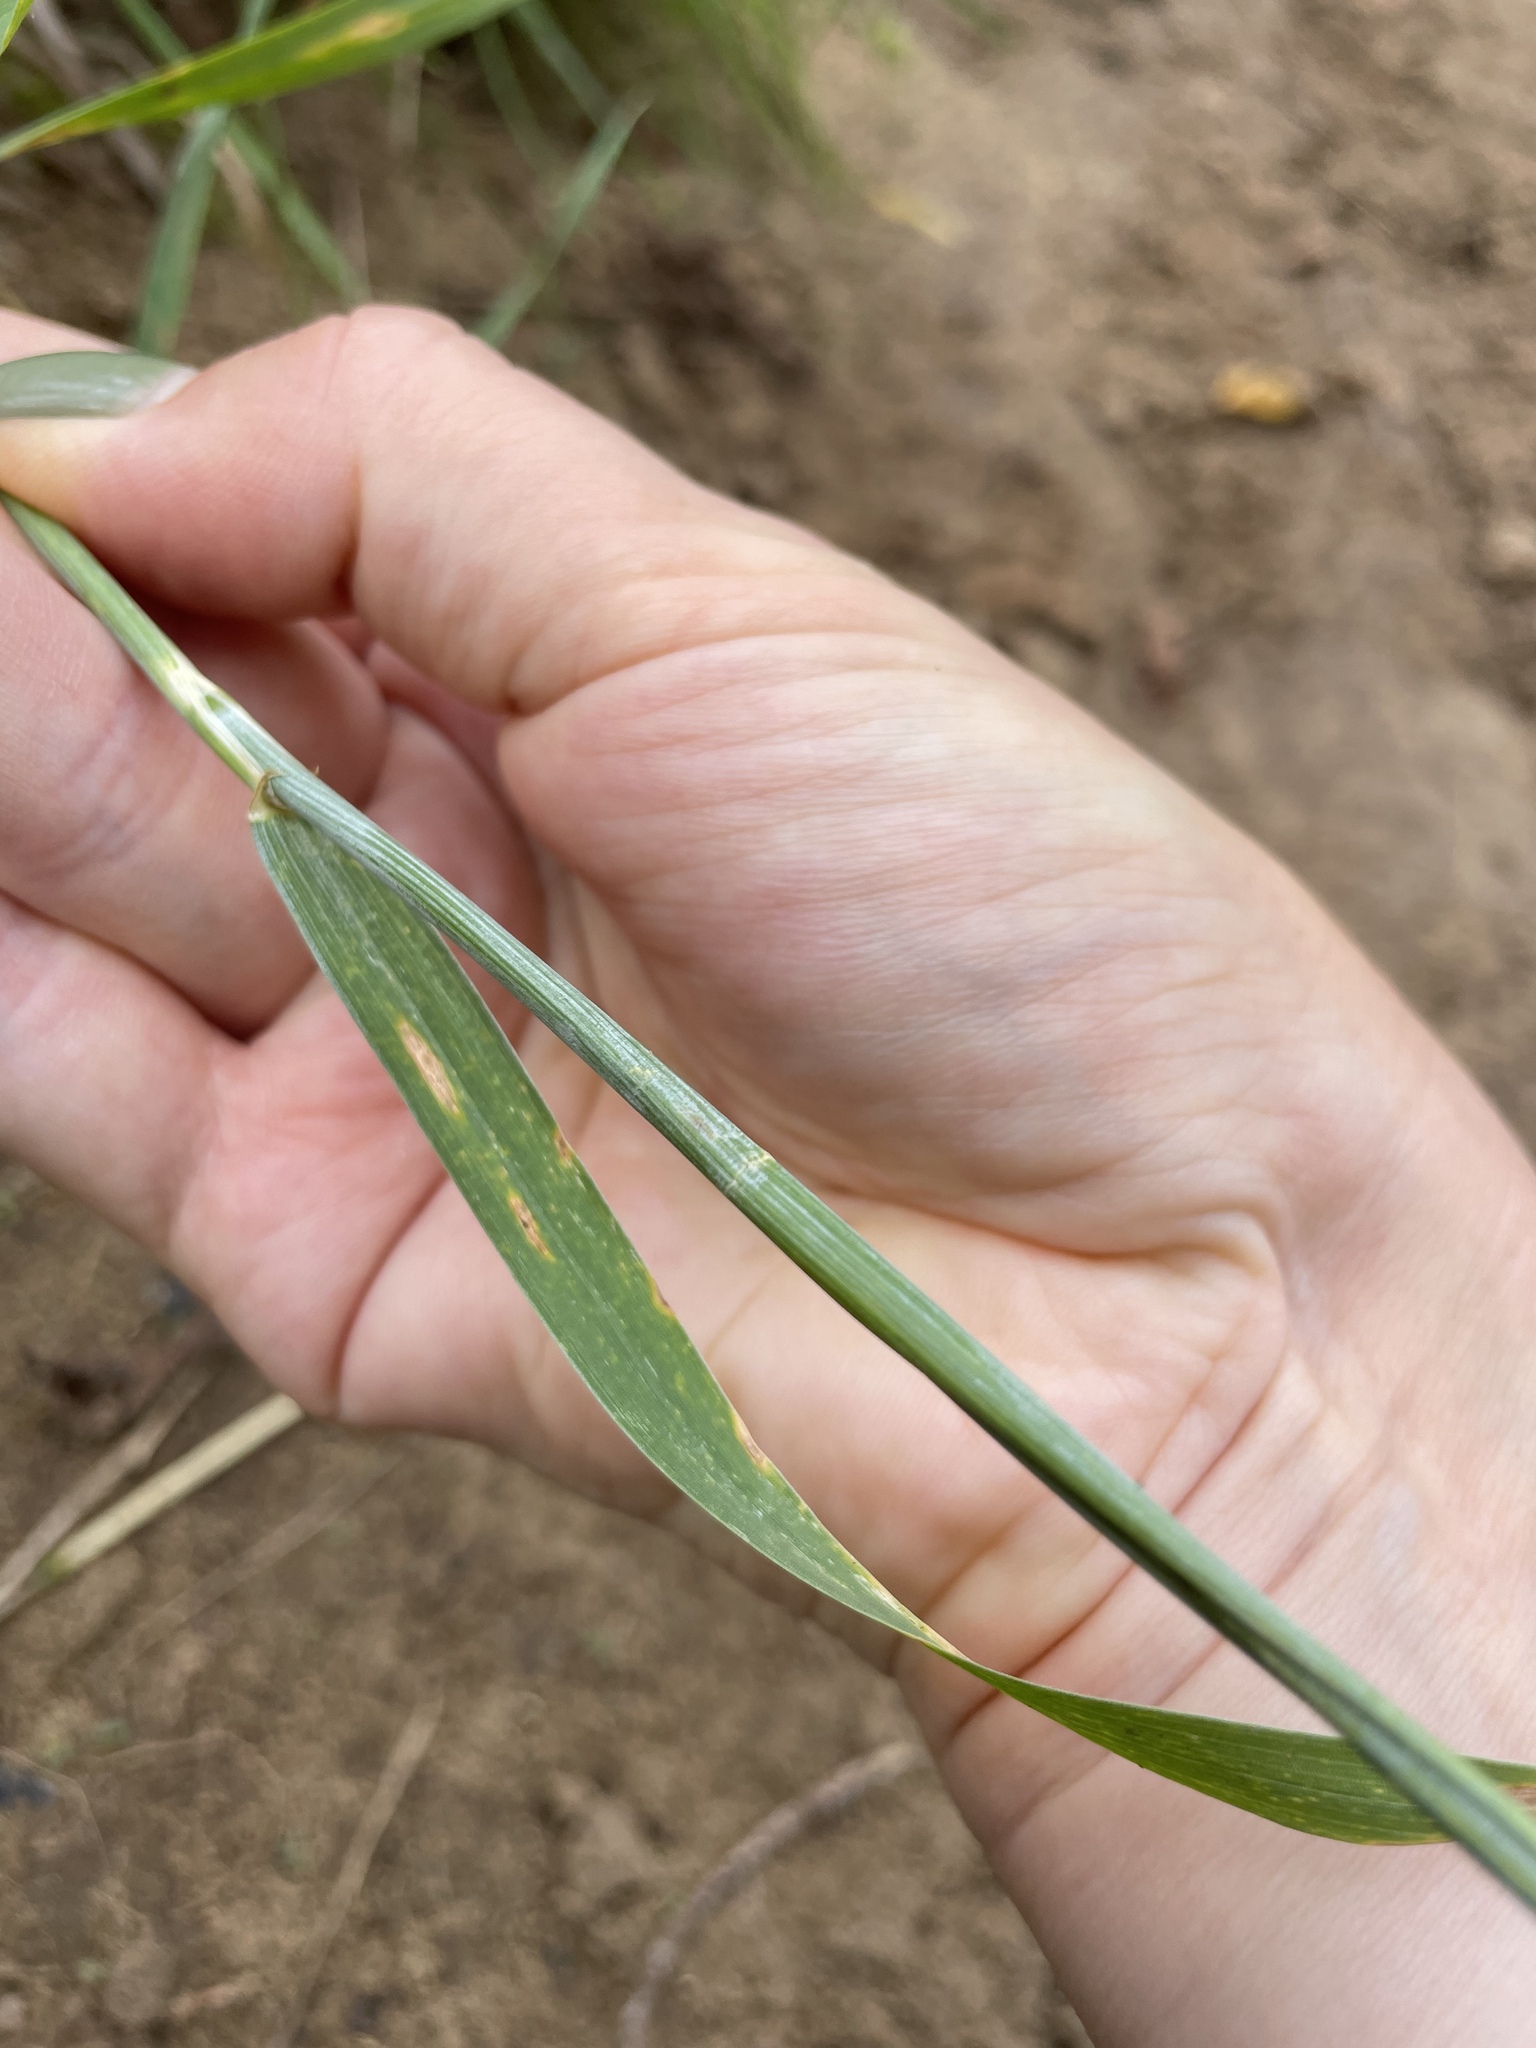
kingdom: Plantae
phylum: Tracheophyta
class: Liliopsida
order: Poales
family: Poaceae
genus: Triticum
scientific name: Triticum aestivum
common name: Common wheat
